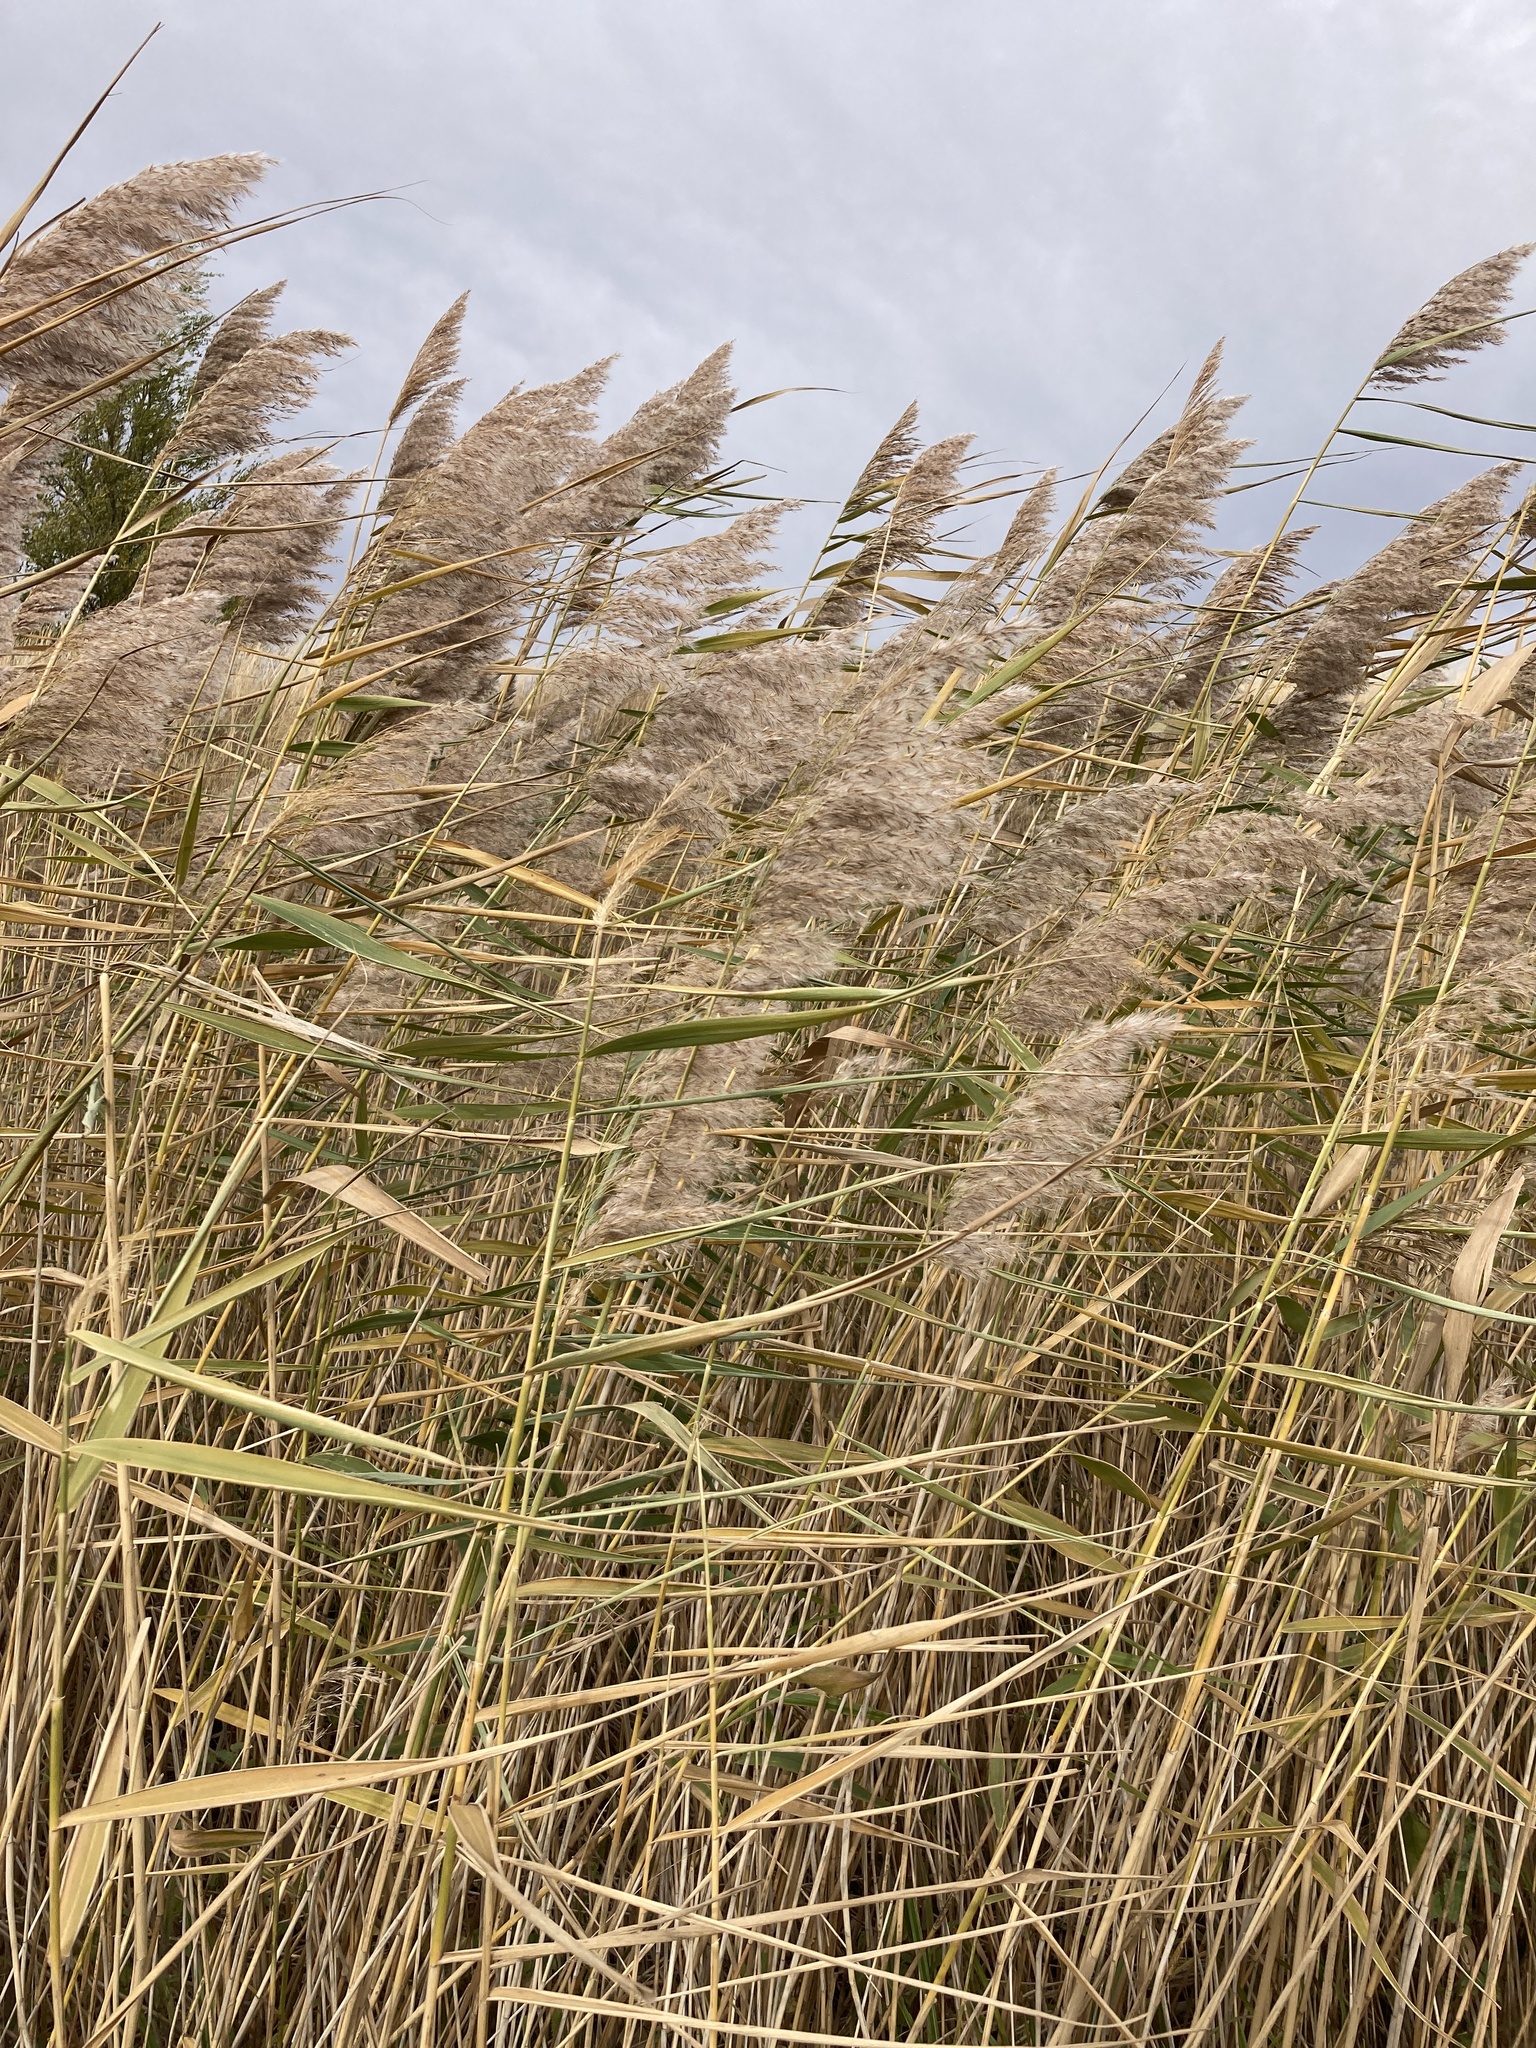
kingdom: Plantae
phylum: Tracheophyta
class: Liliopsida
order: Poales
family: Poaceae
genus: Phragmites
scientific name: Phragmites australis
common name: Common reed
